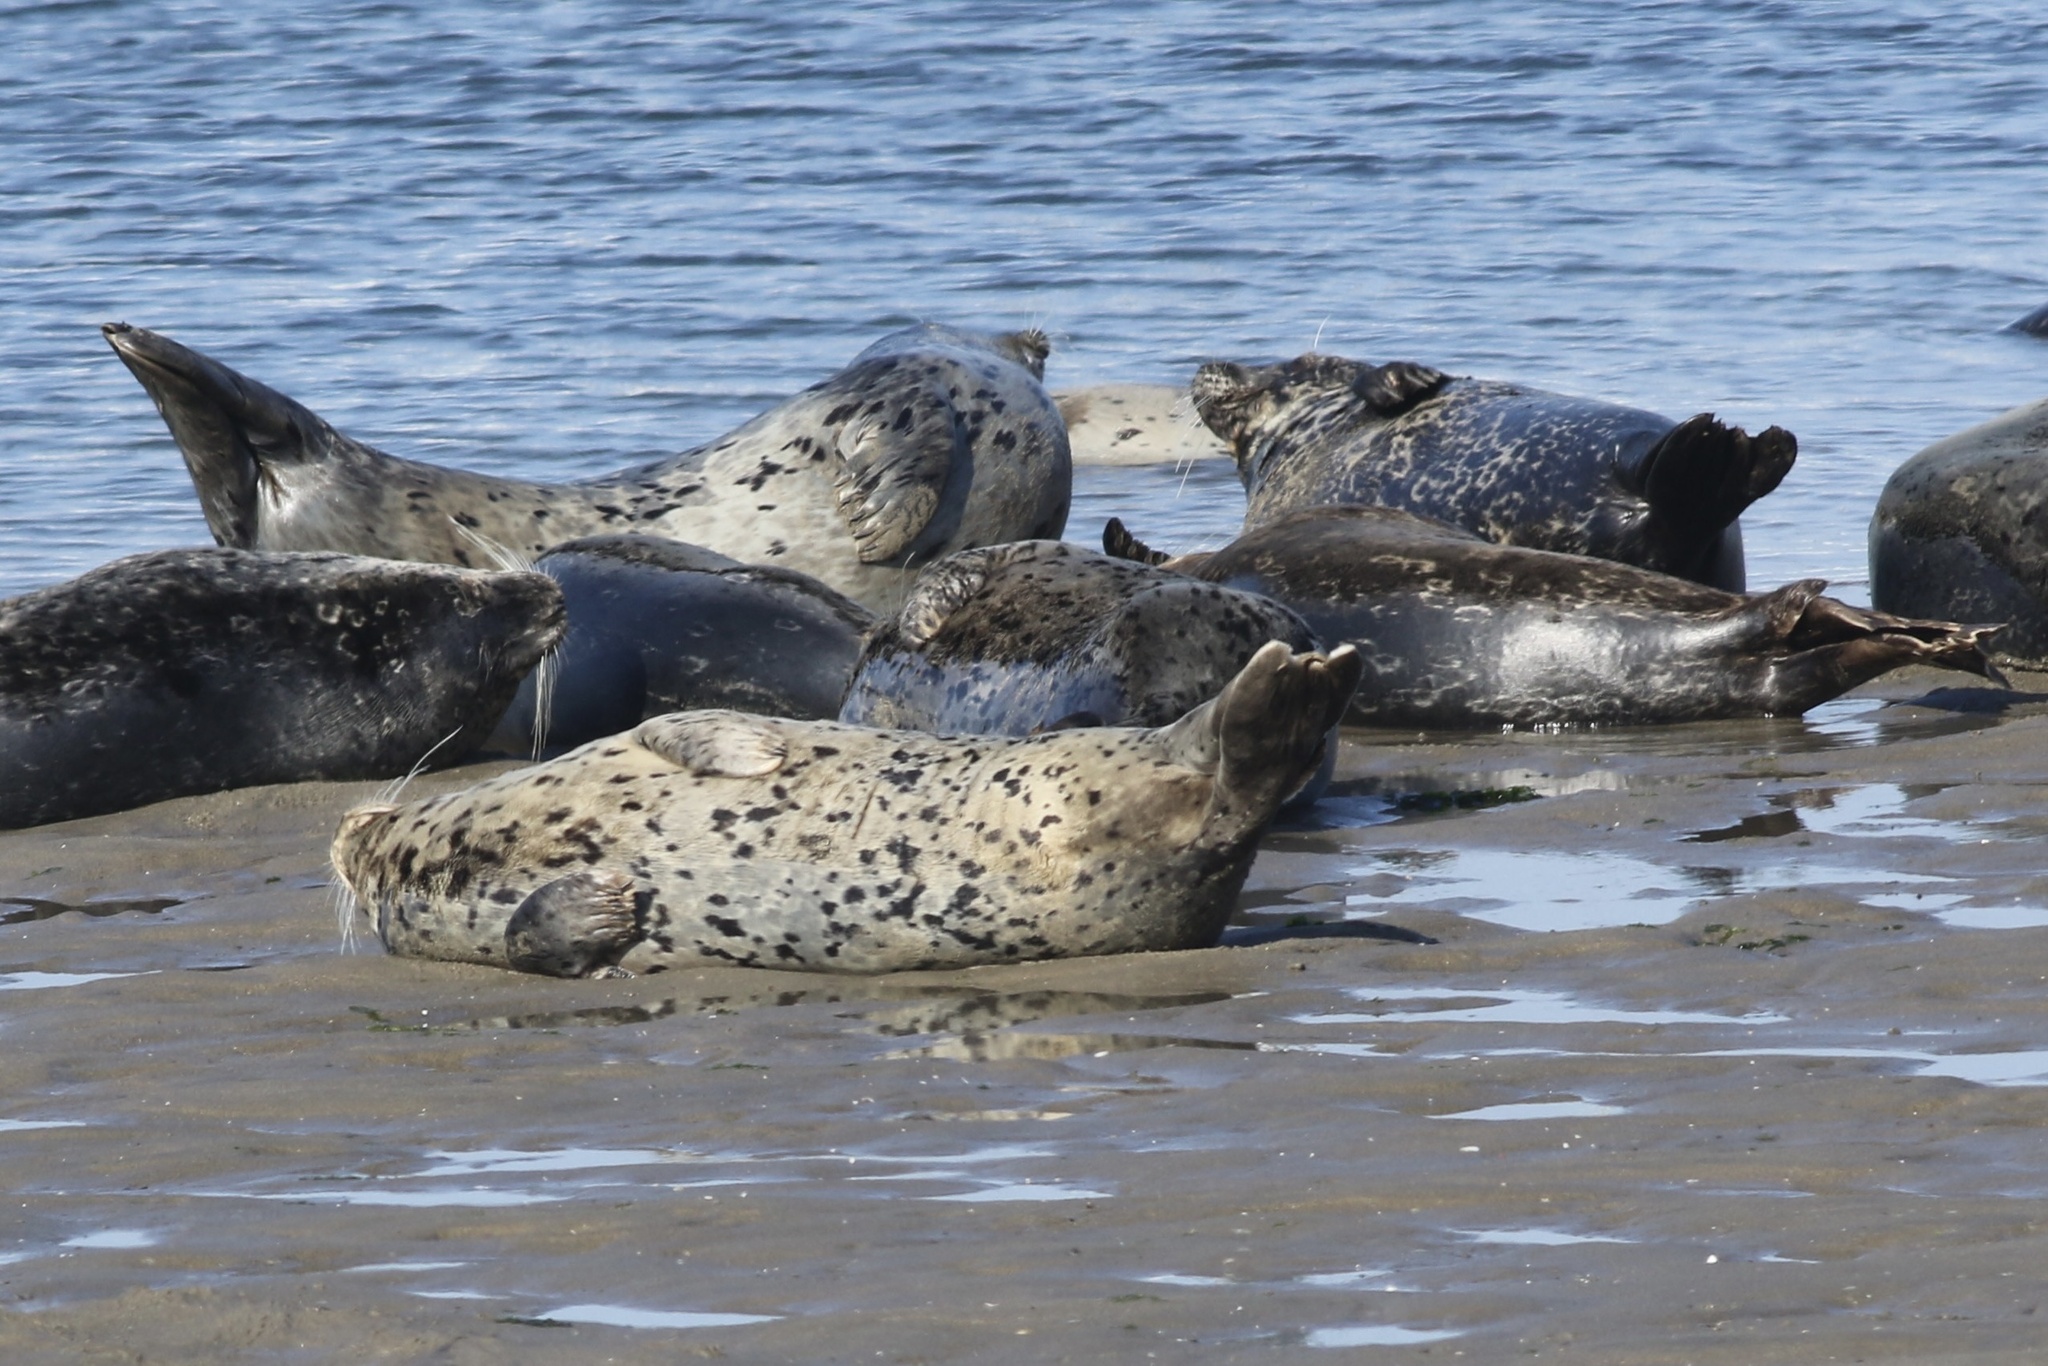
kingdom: Animalia
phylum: Chordata
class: Mammalia
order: Carnivora
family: Phocidae
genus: Phoca
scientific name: Phoca vitulina
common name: Harbor seal
